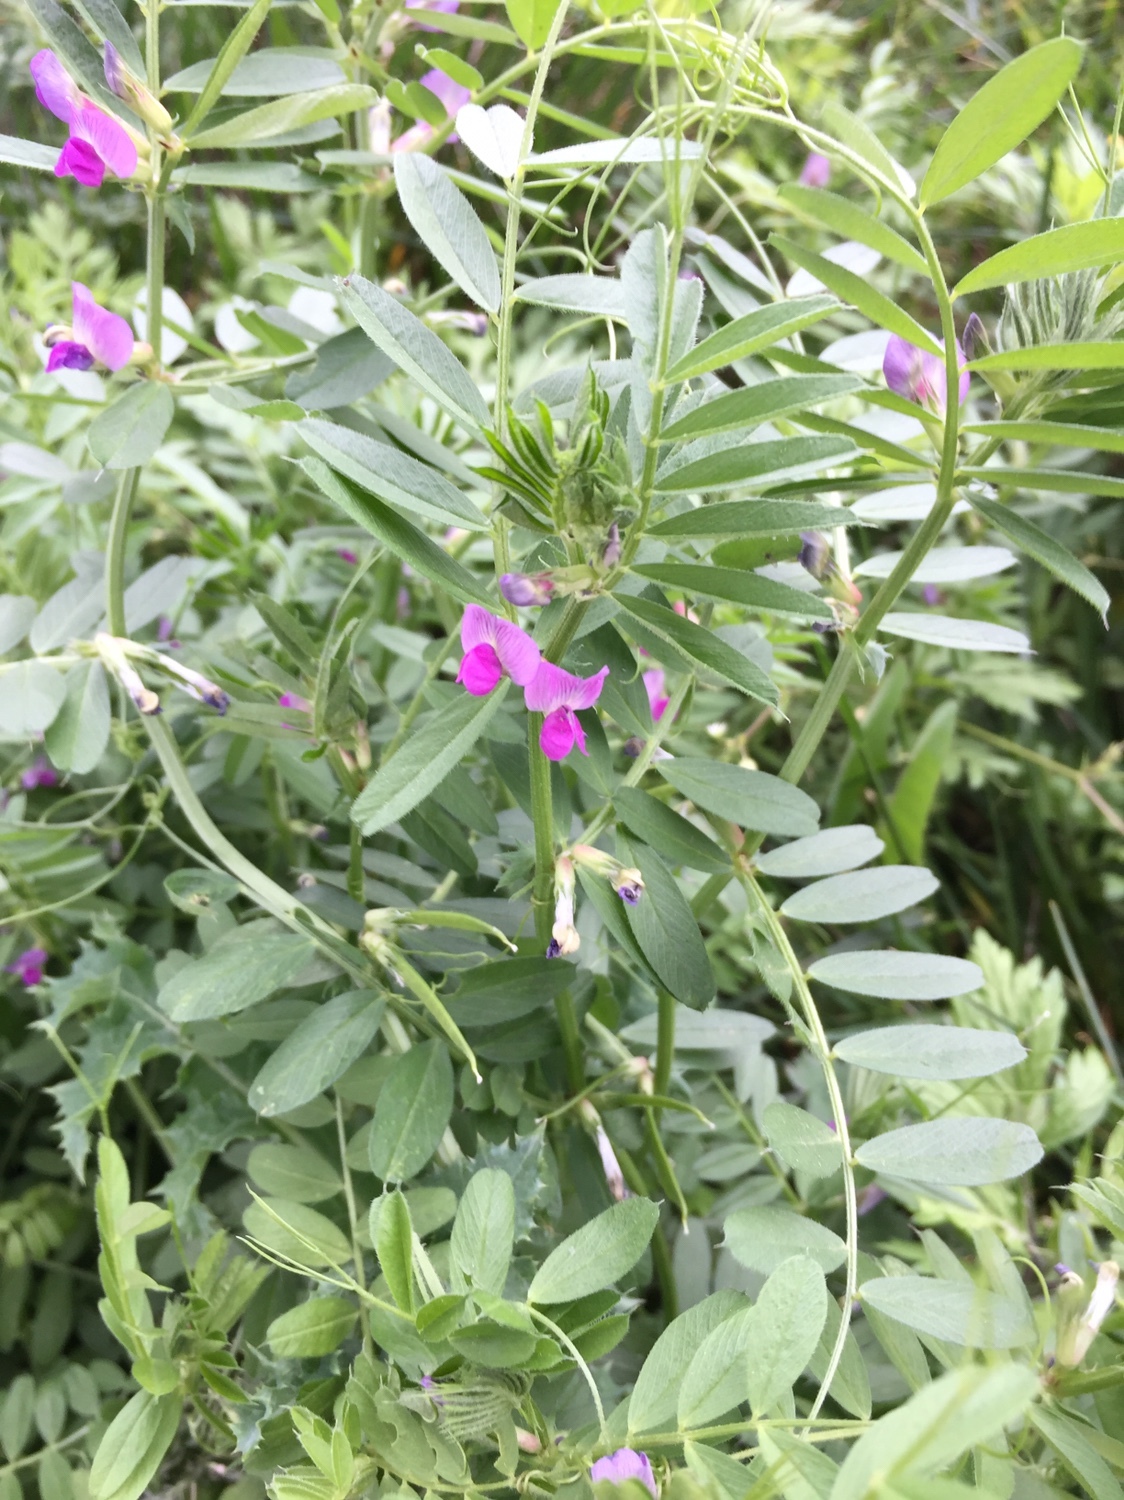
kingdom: Plantae
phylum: Tracheophyta
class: Magnoliopsida
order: Fabales
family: Fabaceae
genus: Vicia
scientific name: Vicia sativa
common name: Garden vetch
